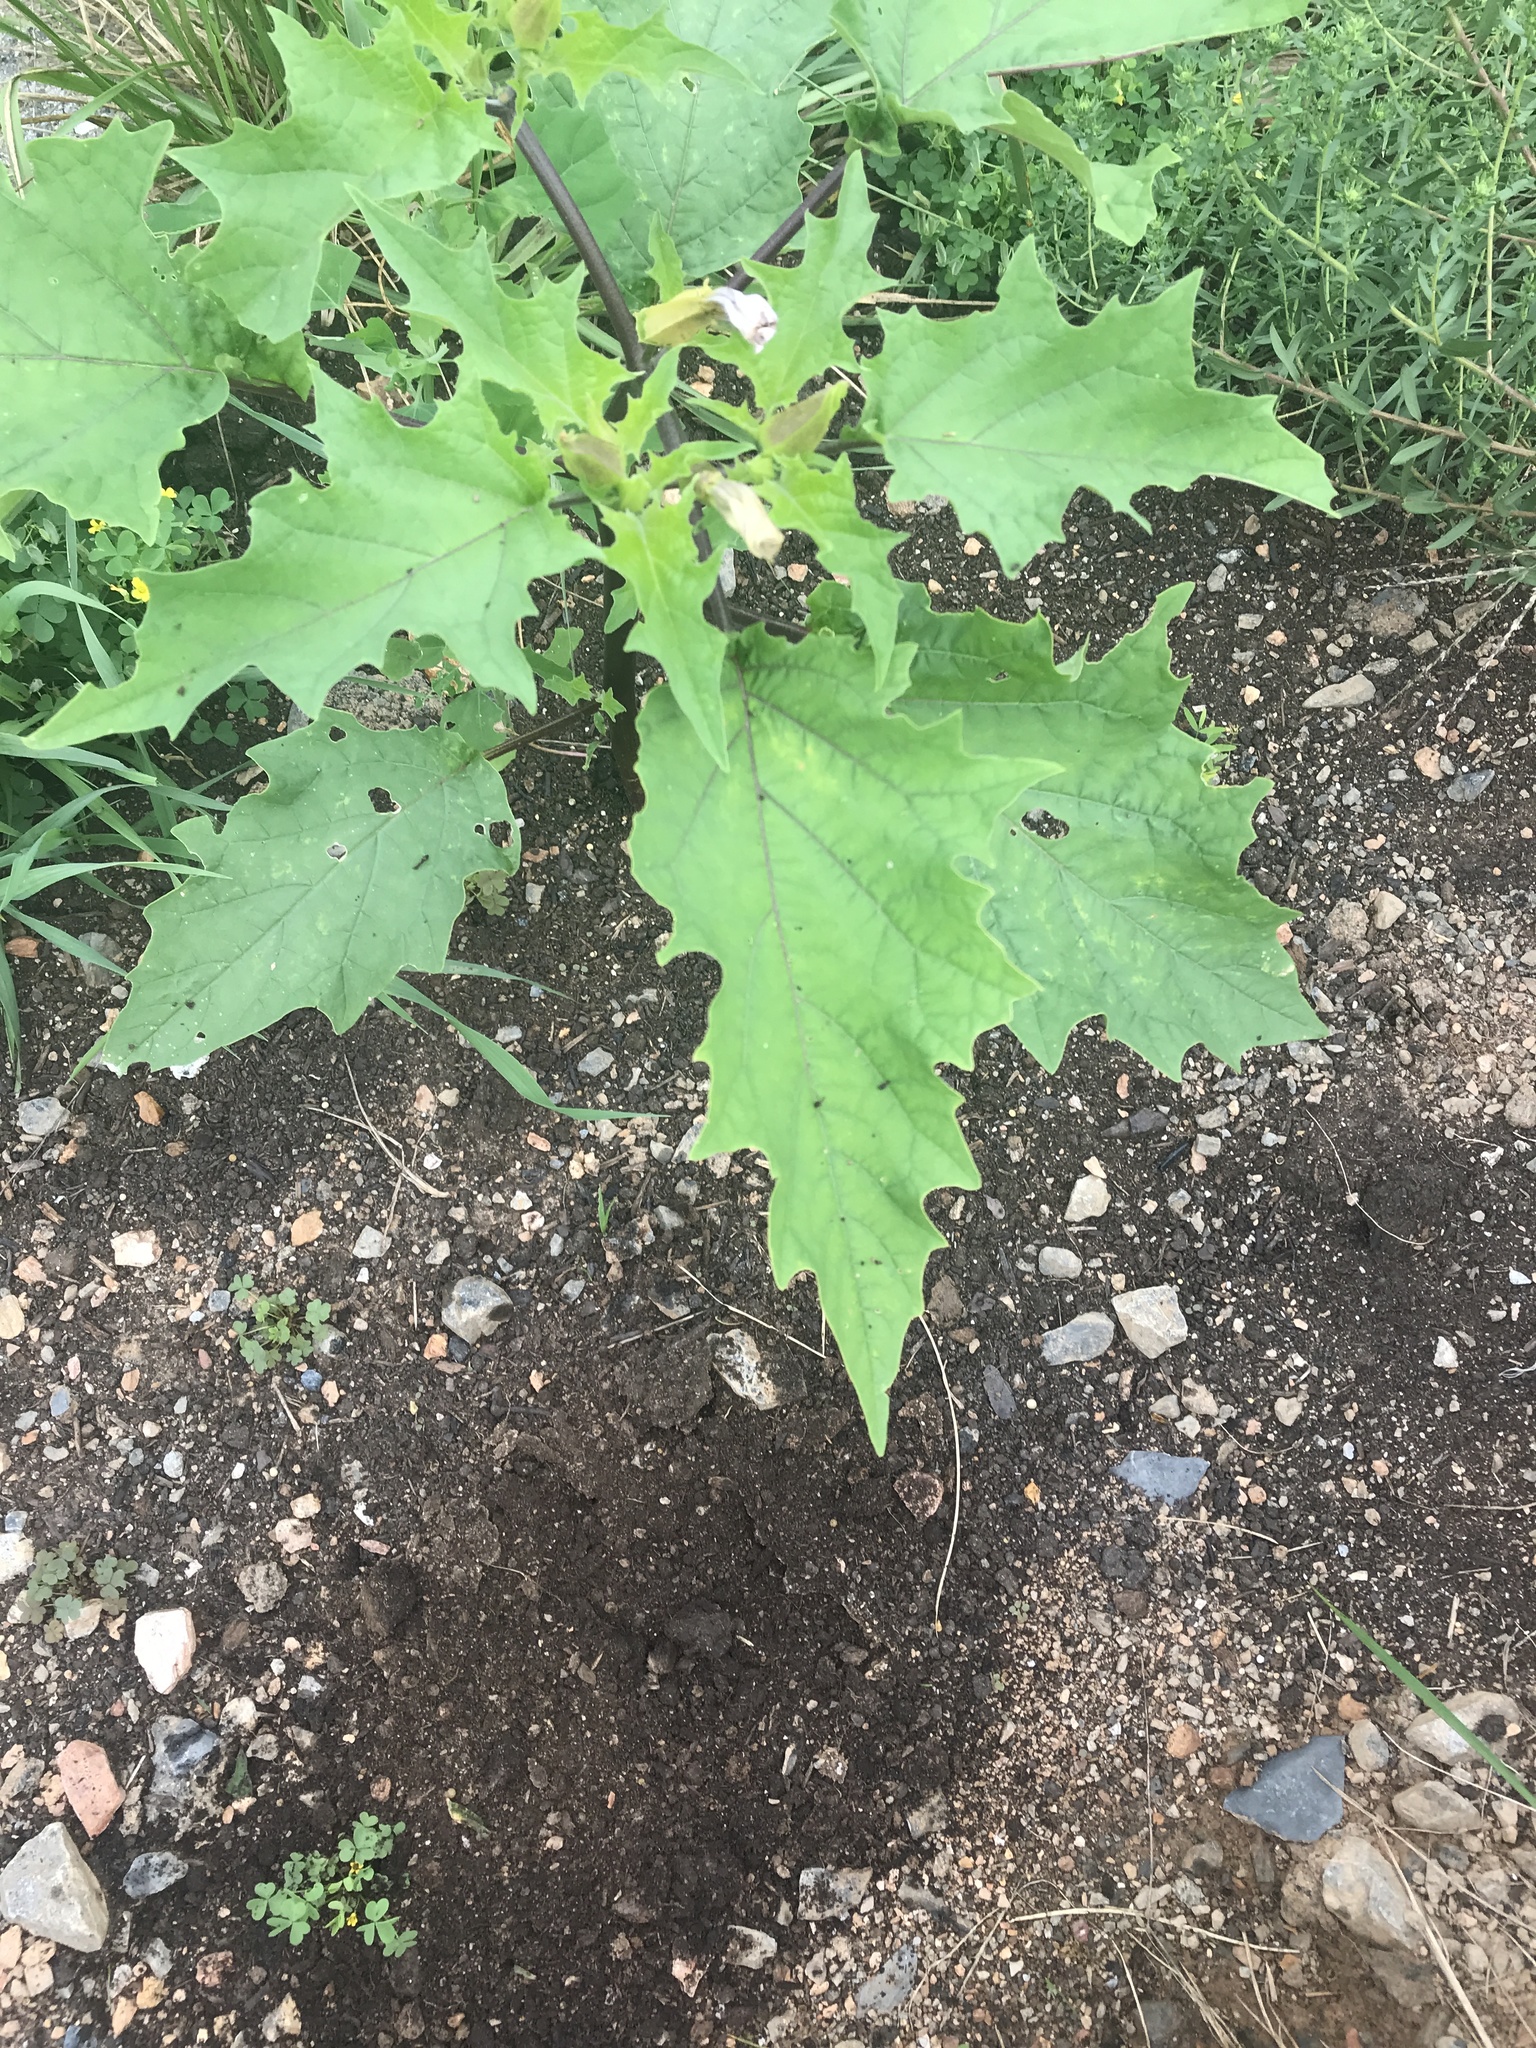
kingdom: Plantae
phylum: Tracheophyta
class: Magnoliopsida
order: Solanales
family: Solanaceae
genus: Datura
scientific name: Datura stramonium
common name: Thorn-apple
